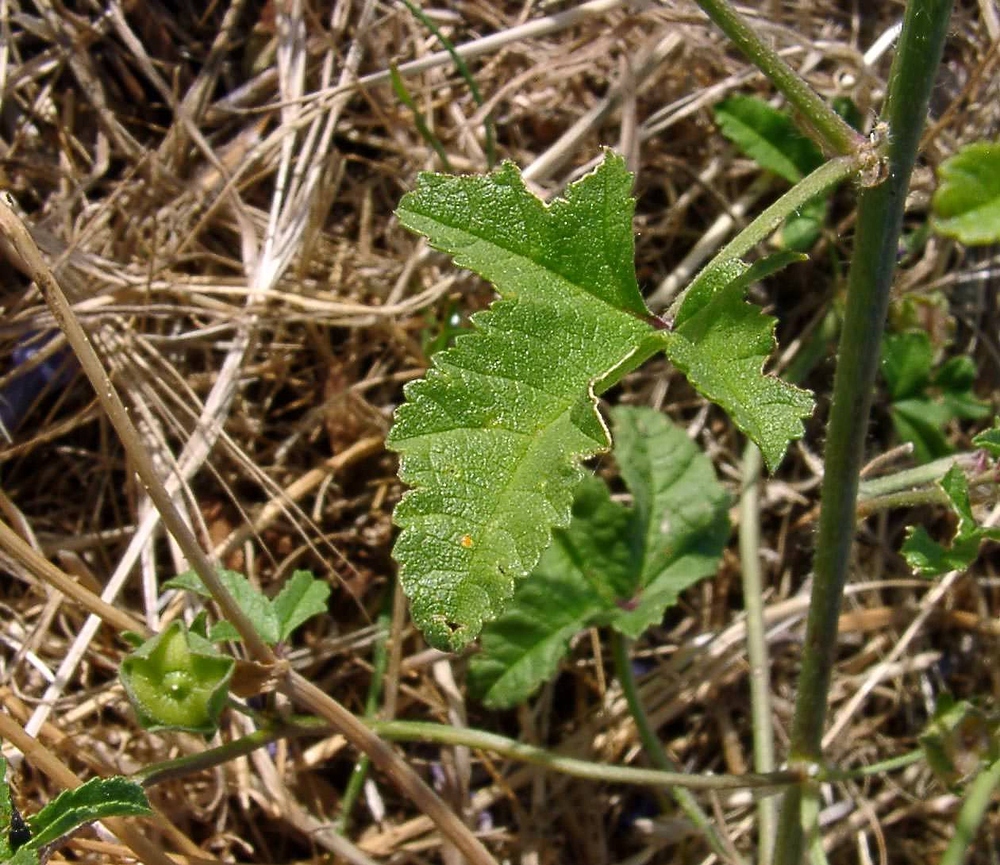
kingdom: Plantae
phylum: Tracheophyta
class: Magnoliopsida
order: Malvales
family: Malvaceae
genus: Malva
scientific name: Malva sylvestris
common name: Common mallow
